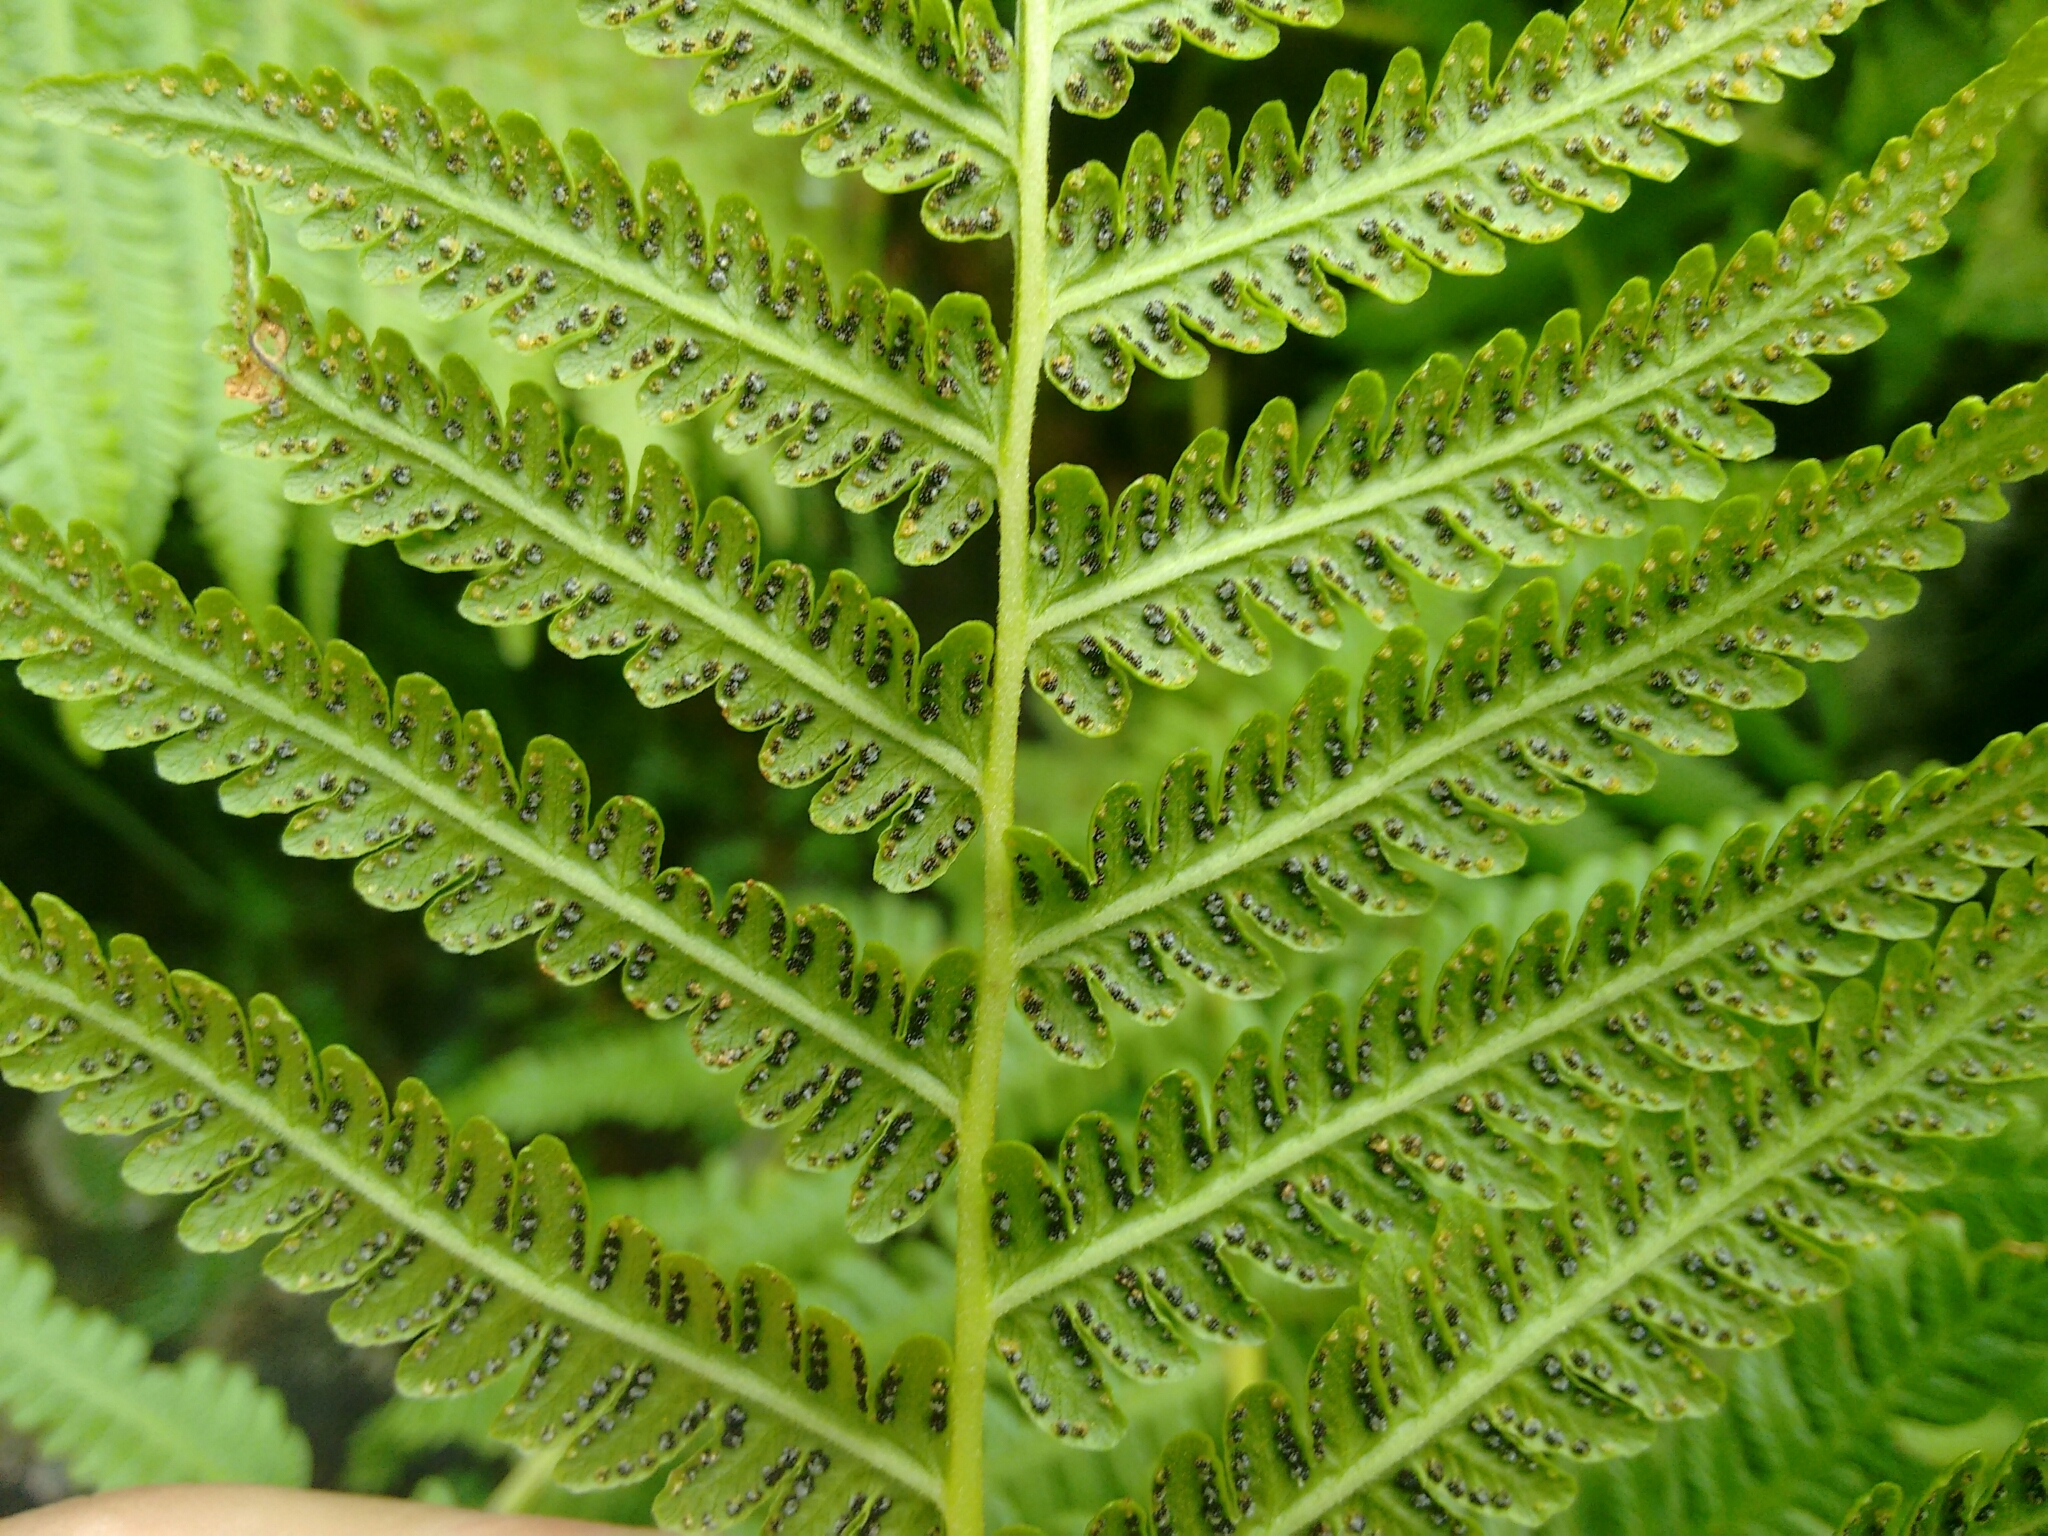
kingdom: Plantae
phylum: Tracheophyta
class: Polypodiopsida
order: Polypodiales
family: Thelypteridaceae
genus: Oreopteris
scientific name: Oreopteris limbosperma
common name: Lemon-scented fern
